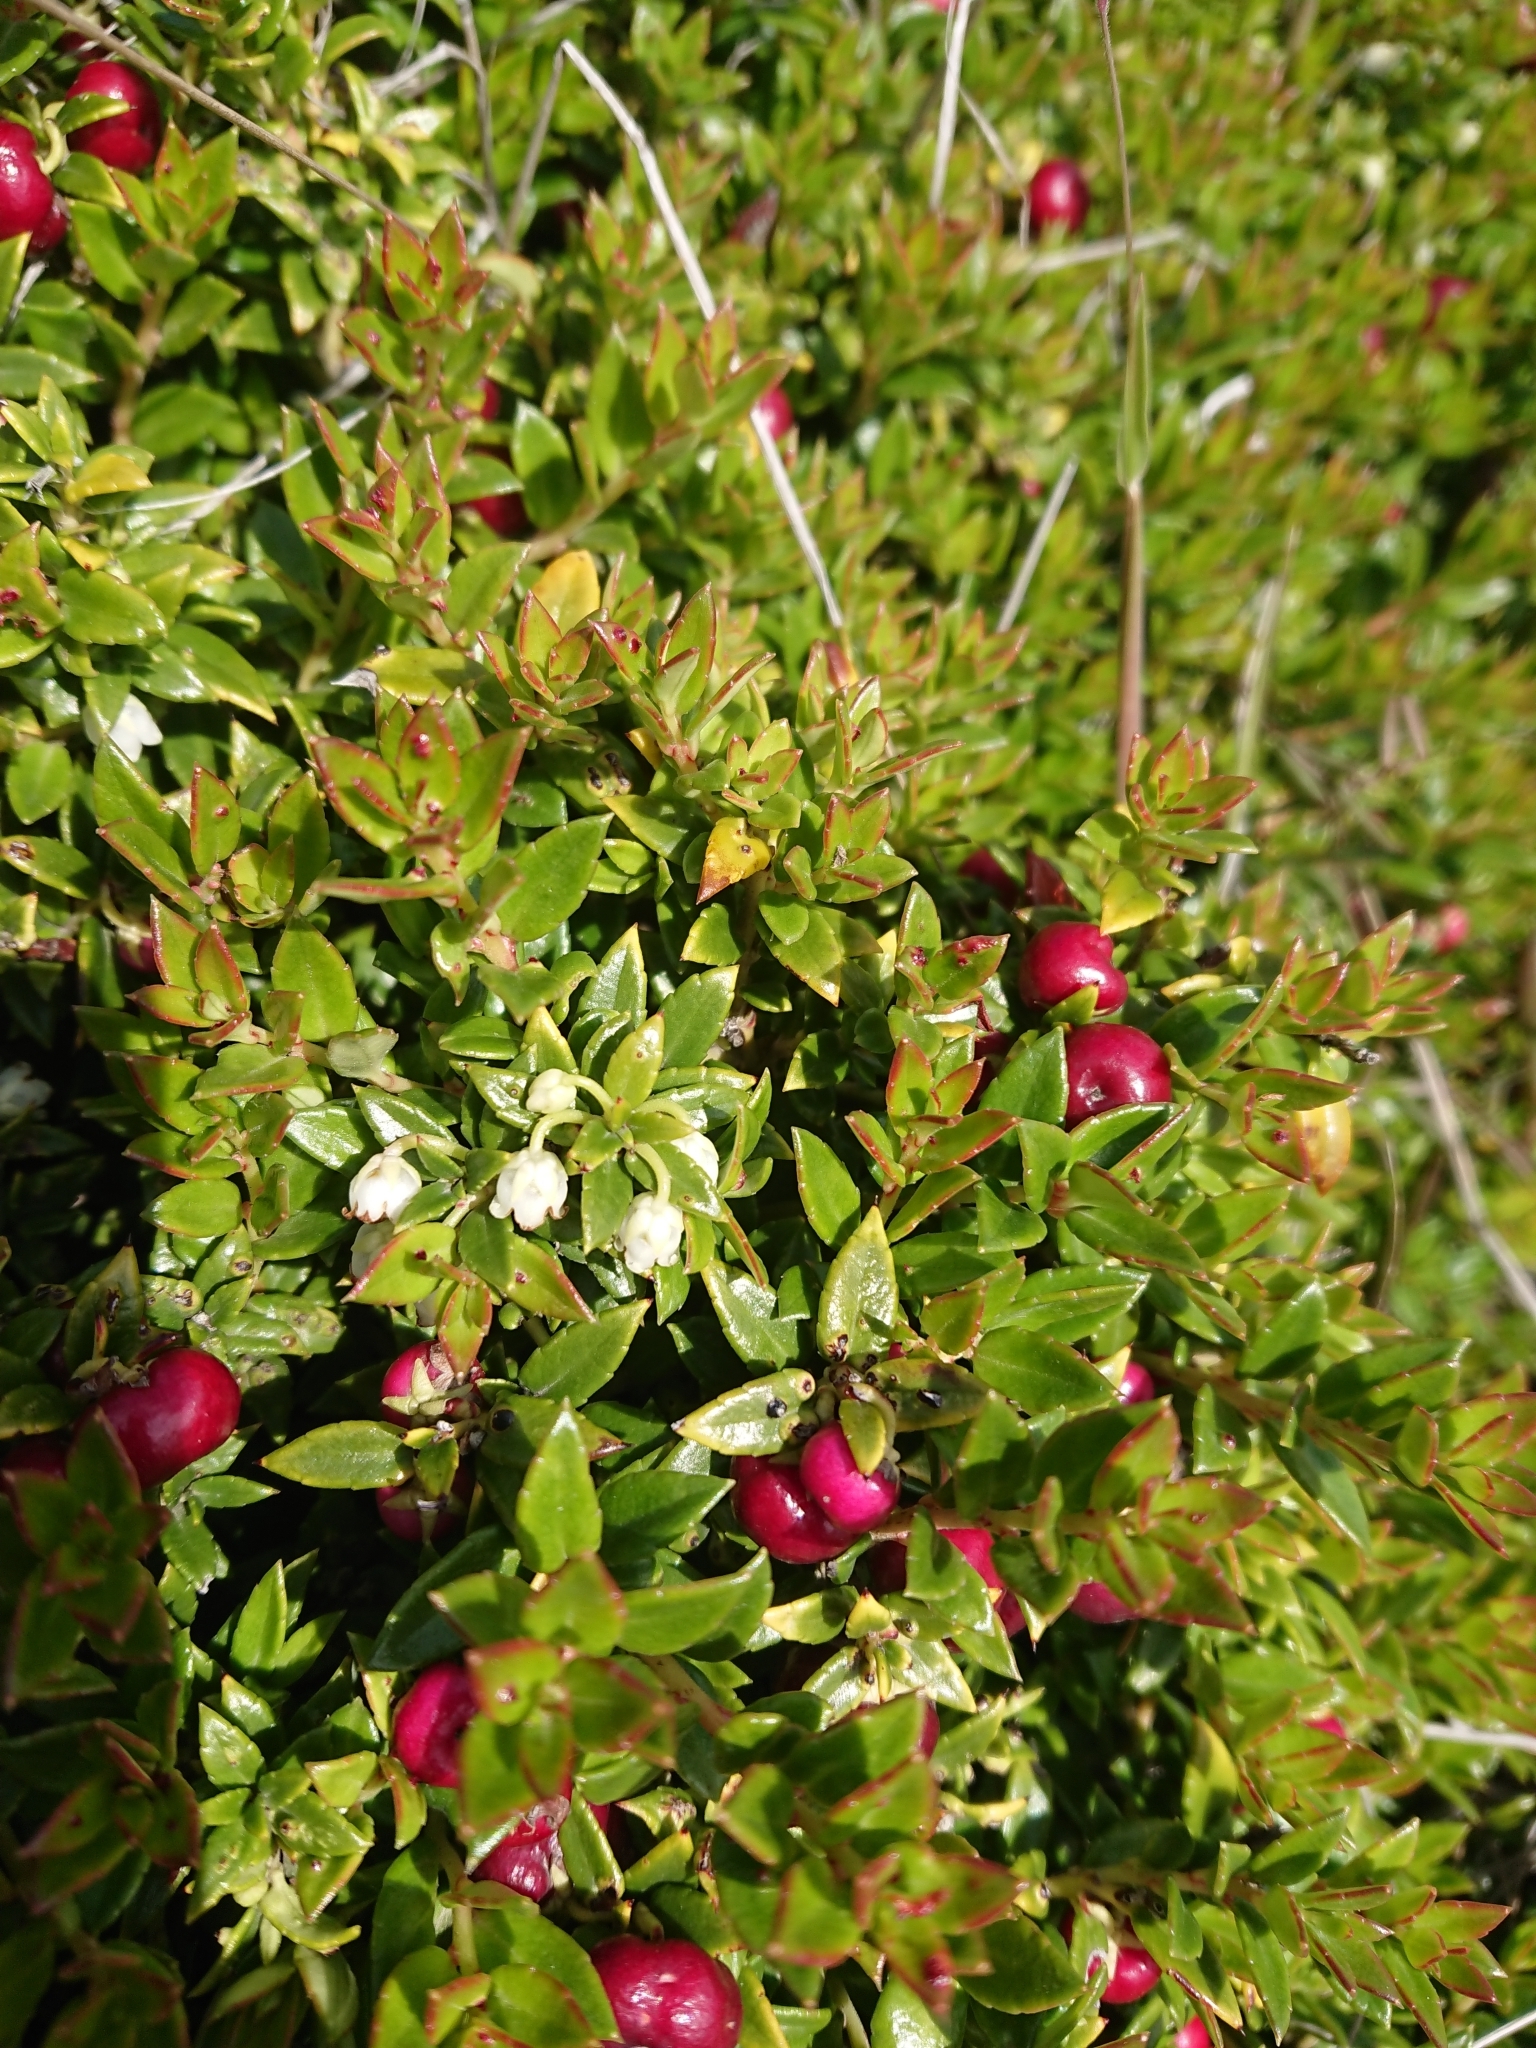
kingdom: Plantae
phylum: Tracheophyta
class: Magnoliopsida
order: Ericales
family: Ericaceae
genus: Gaultheria
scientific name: Gaultheria mucronata
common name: Prickly heath
